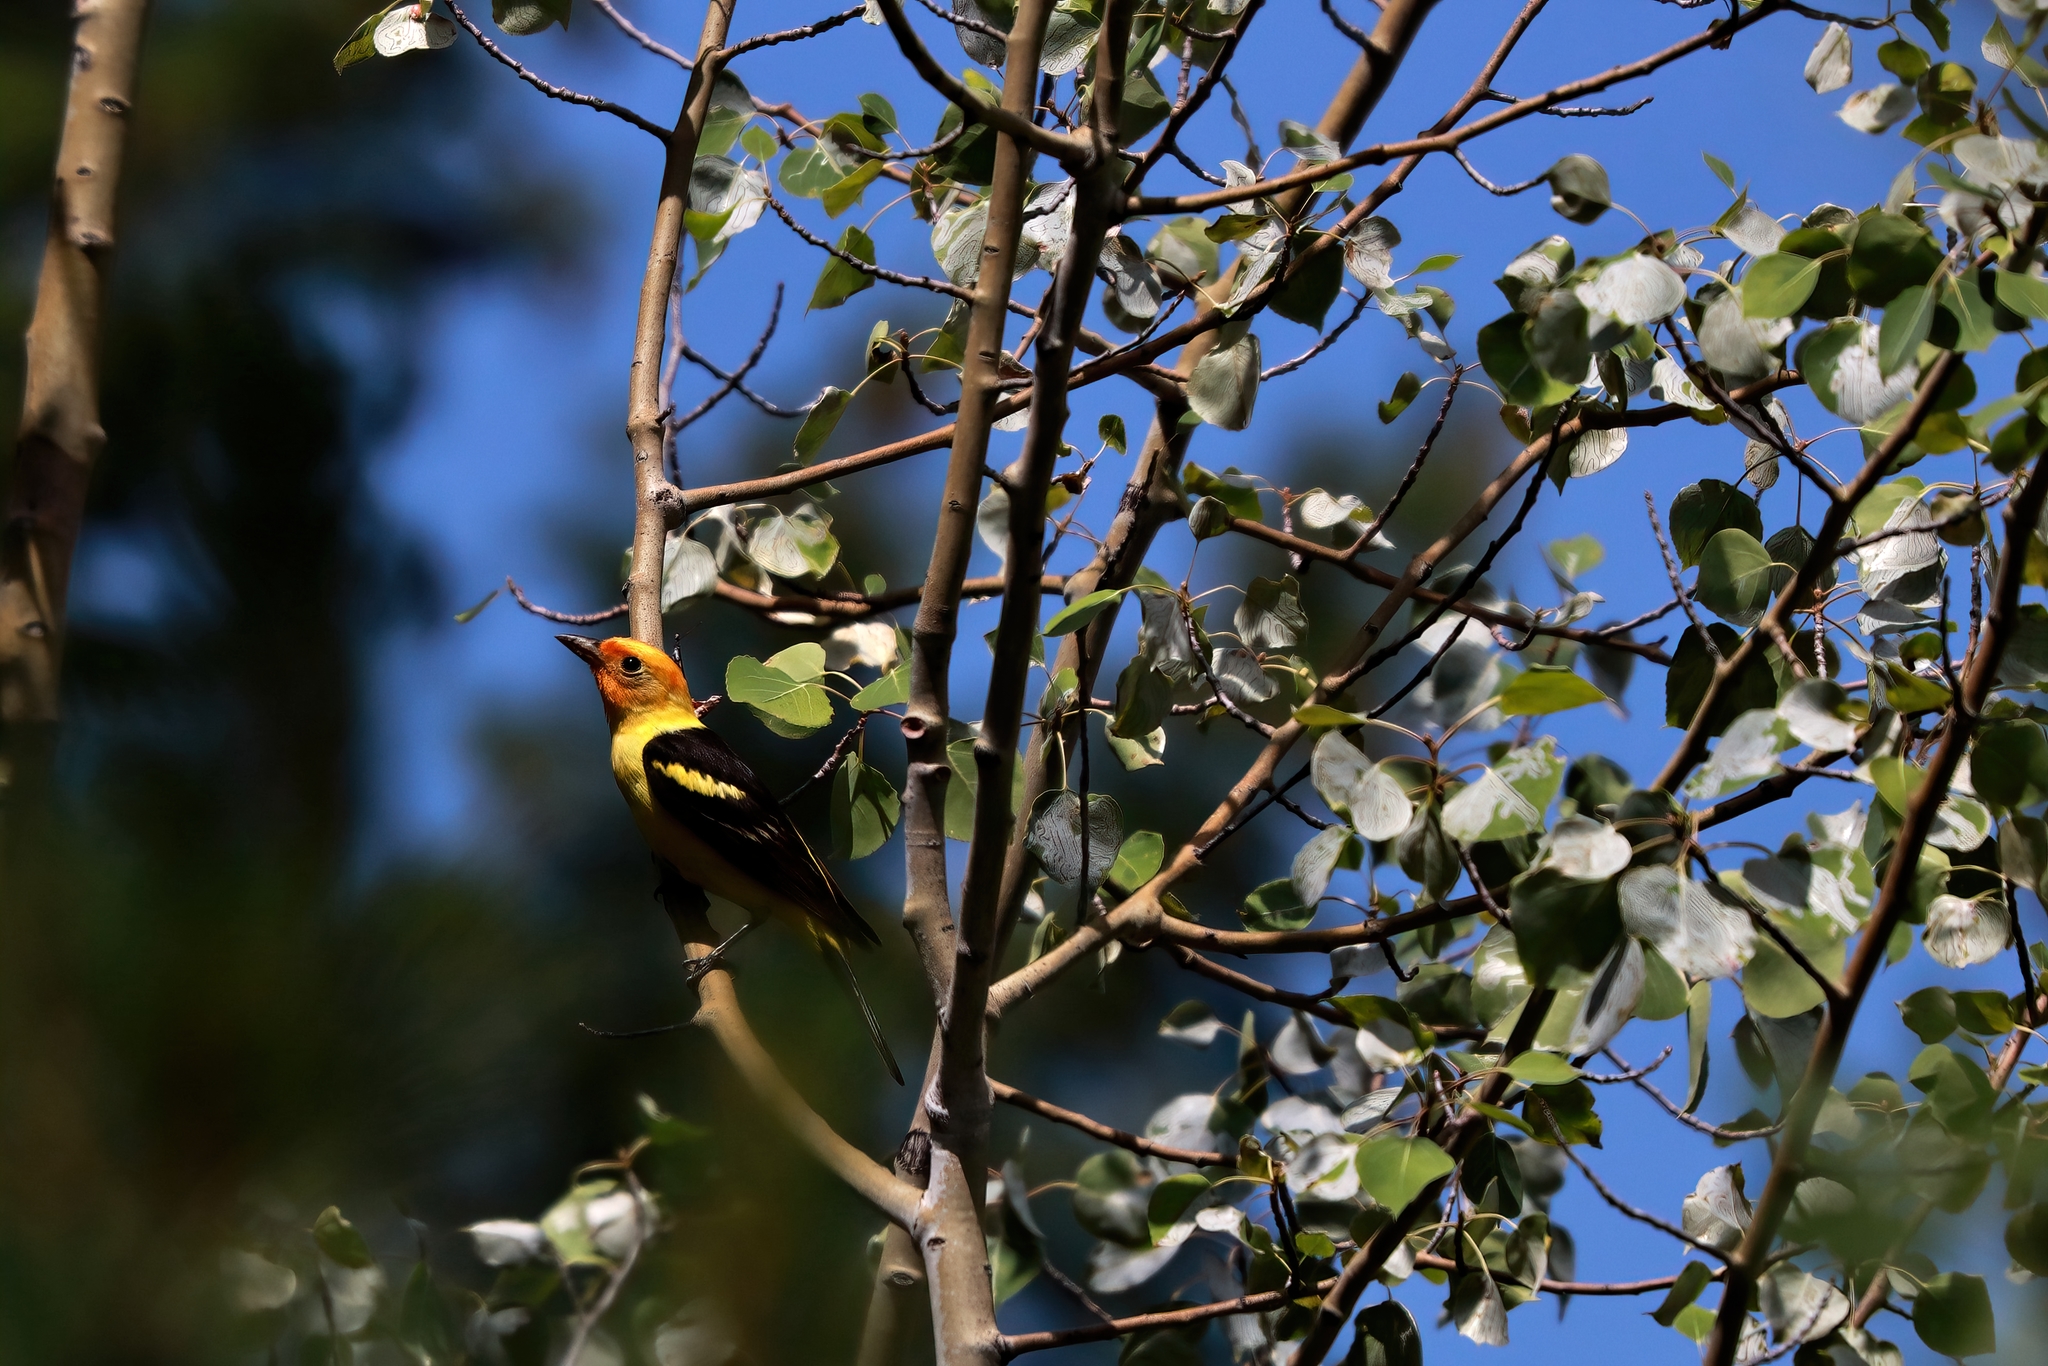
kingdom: Animalia
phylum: Chordata
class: Aves
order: Passeriformes
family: Cardinalidae
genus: Piranga
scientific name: Piranga ludoviciana
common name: Western tanager
